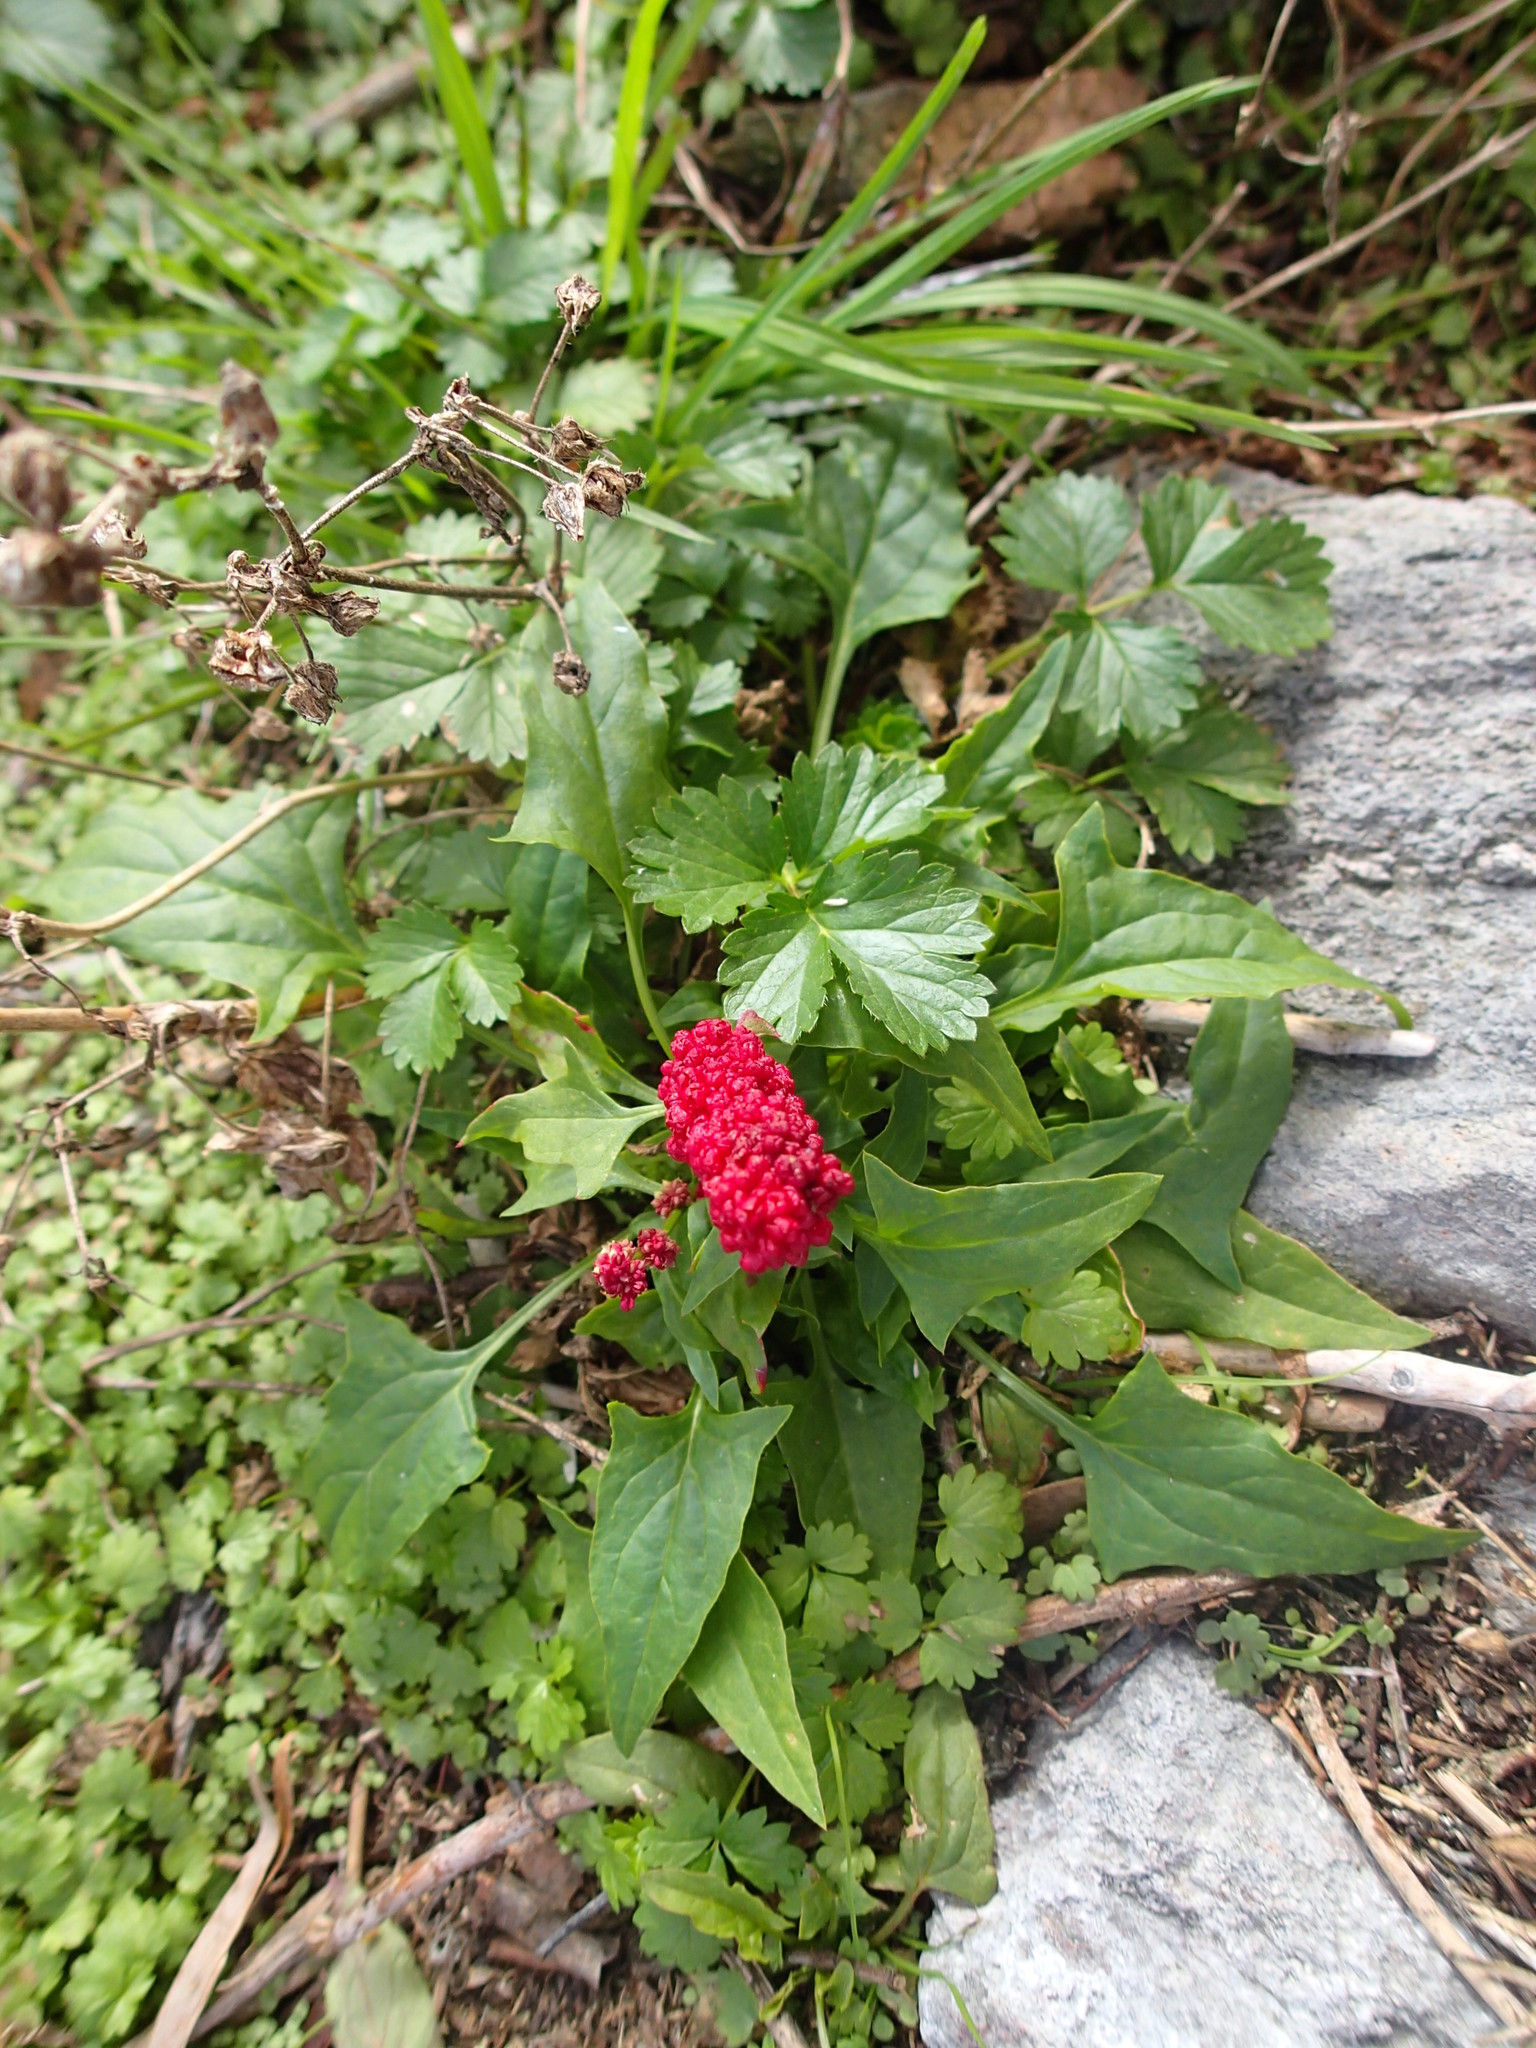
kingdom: Plantae
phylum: Tracheophyta
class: Magnoliopsida
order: Caryophyllales
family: Amaranthaceae
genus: Blitum
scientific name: Blitum capitatum
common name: Strawberry-blight
